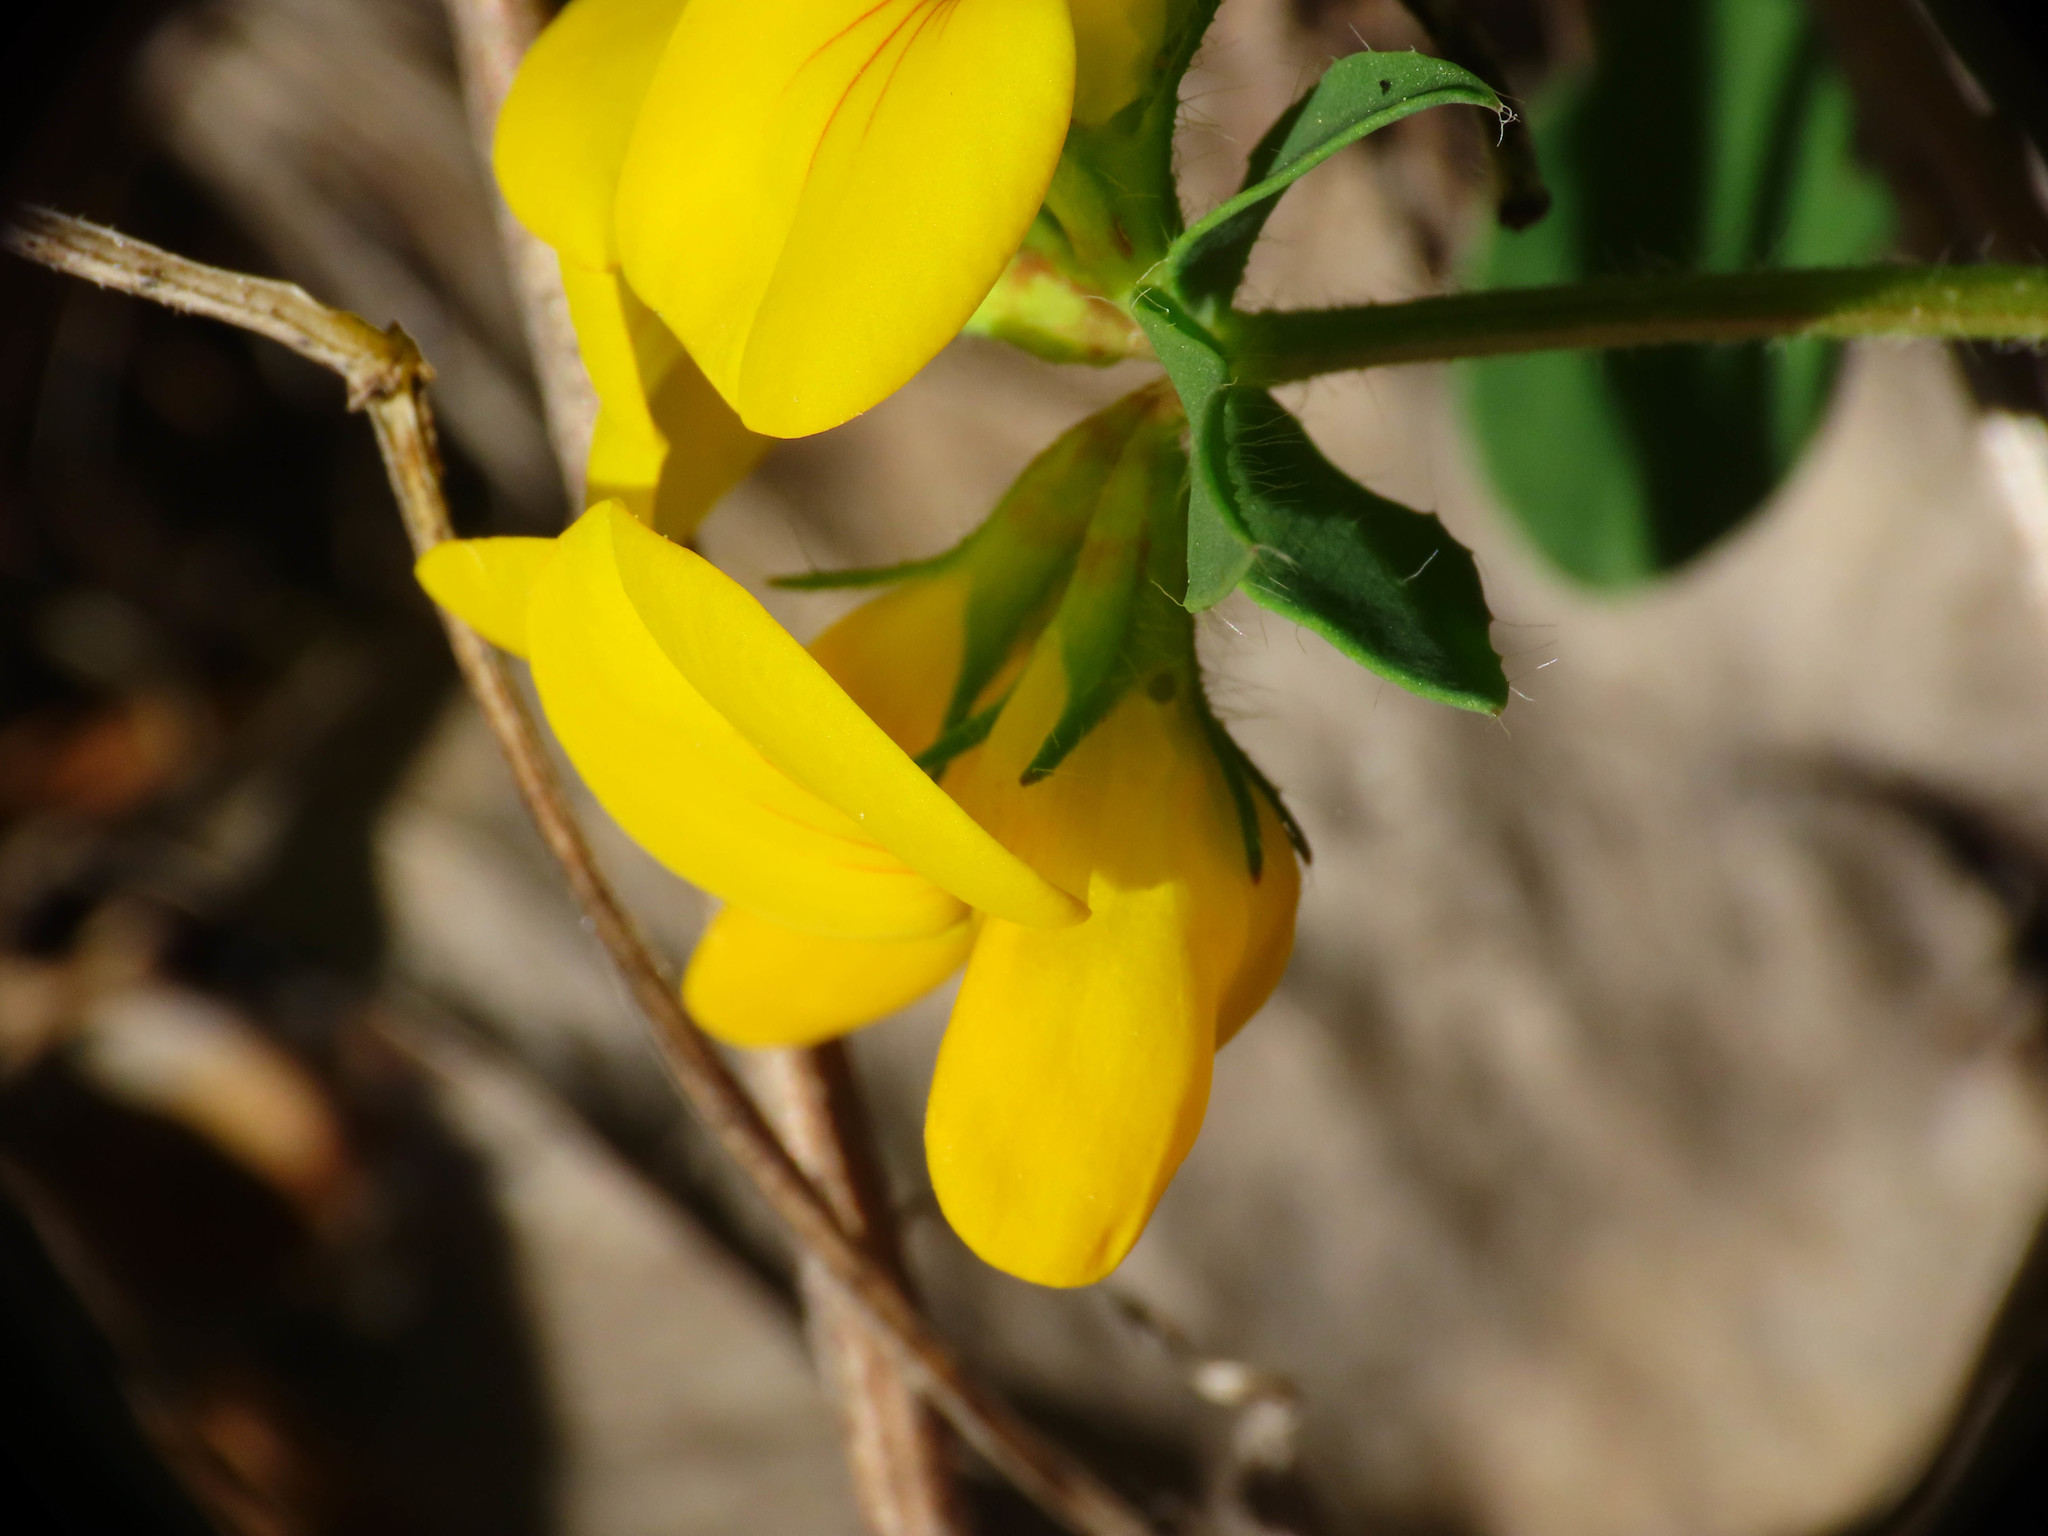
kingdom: Plantae
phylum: Tracheophyta
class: Magnoliopsida
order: Fabales
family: Fabaceae
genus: Lotus
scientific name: Lotus corniculatus
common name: Common bird's-foot-trefoil
